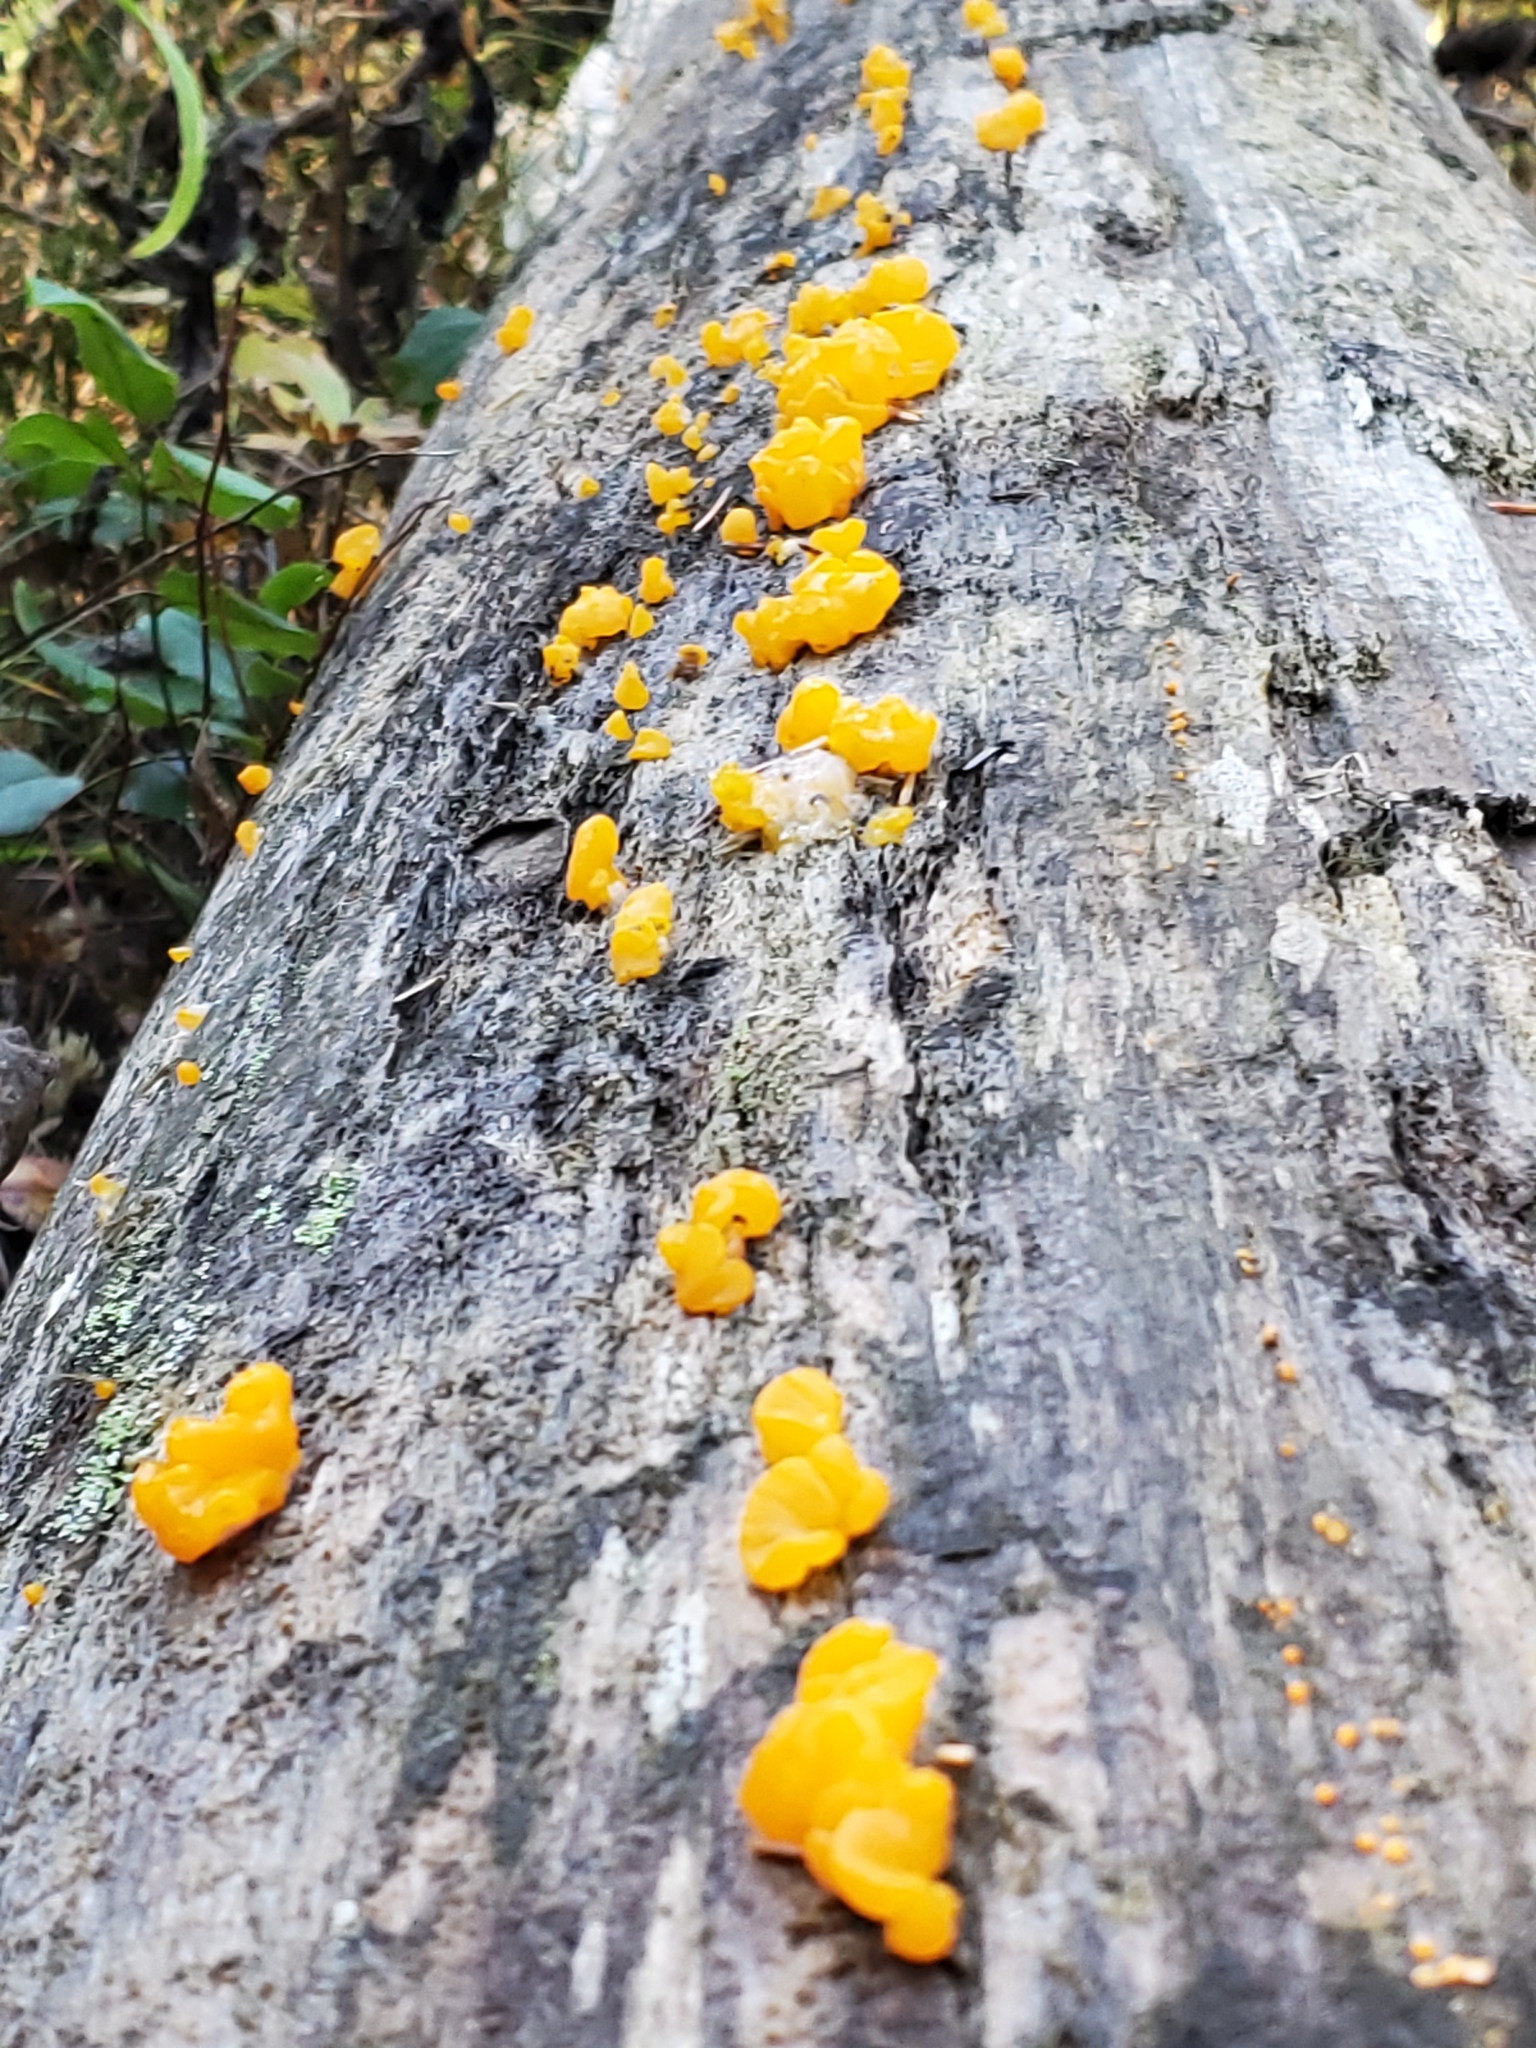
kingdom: Fungi
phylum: Basidiomycota
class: Dacrymycetes
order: Dacrymycetales
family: Dacrymycetaceae
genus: Dacrymyces
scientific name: Dacrymyces chrysospermus
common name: Orange jelly spot
